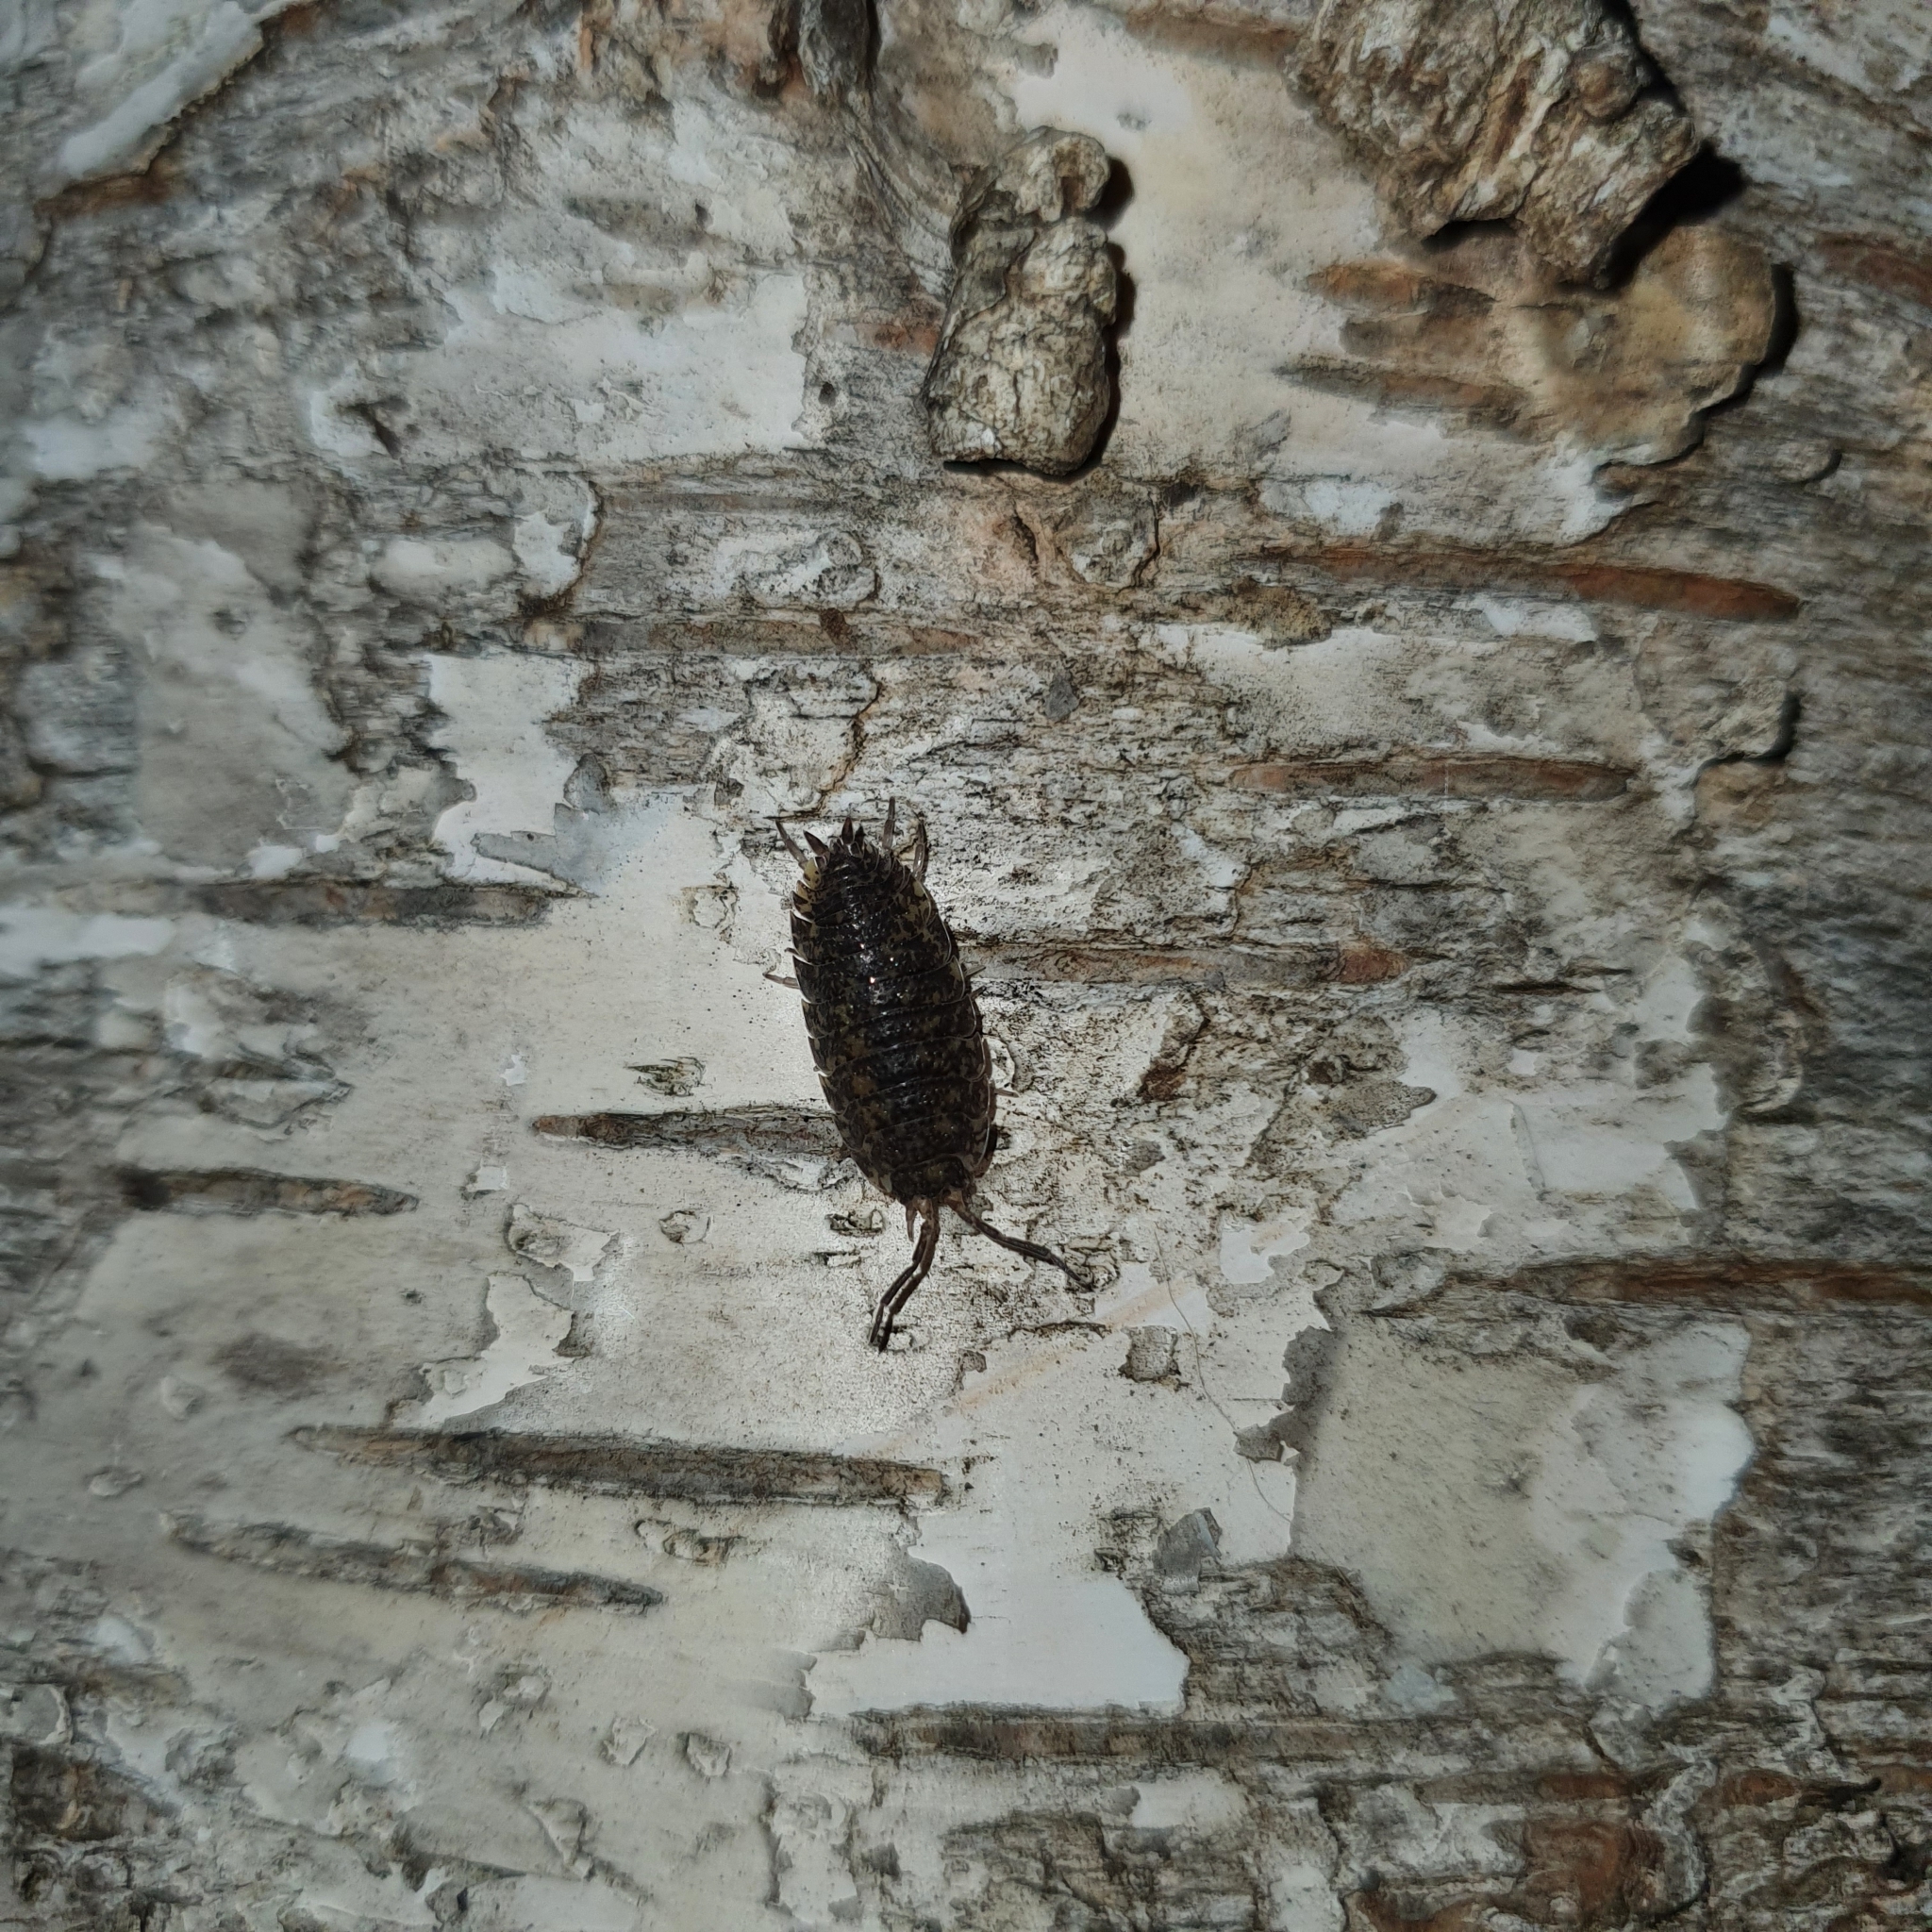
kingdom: Animalia
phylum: Arthropoda
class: Malacostraca
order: Isopoda
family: Porcellionidae
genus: Porcellio
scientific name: Porcellio scaber
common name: Common rough woodlouse
